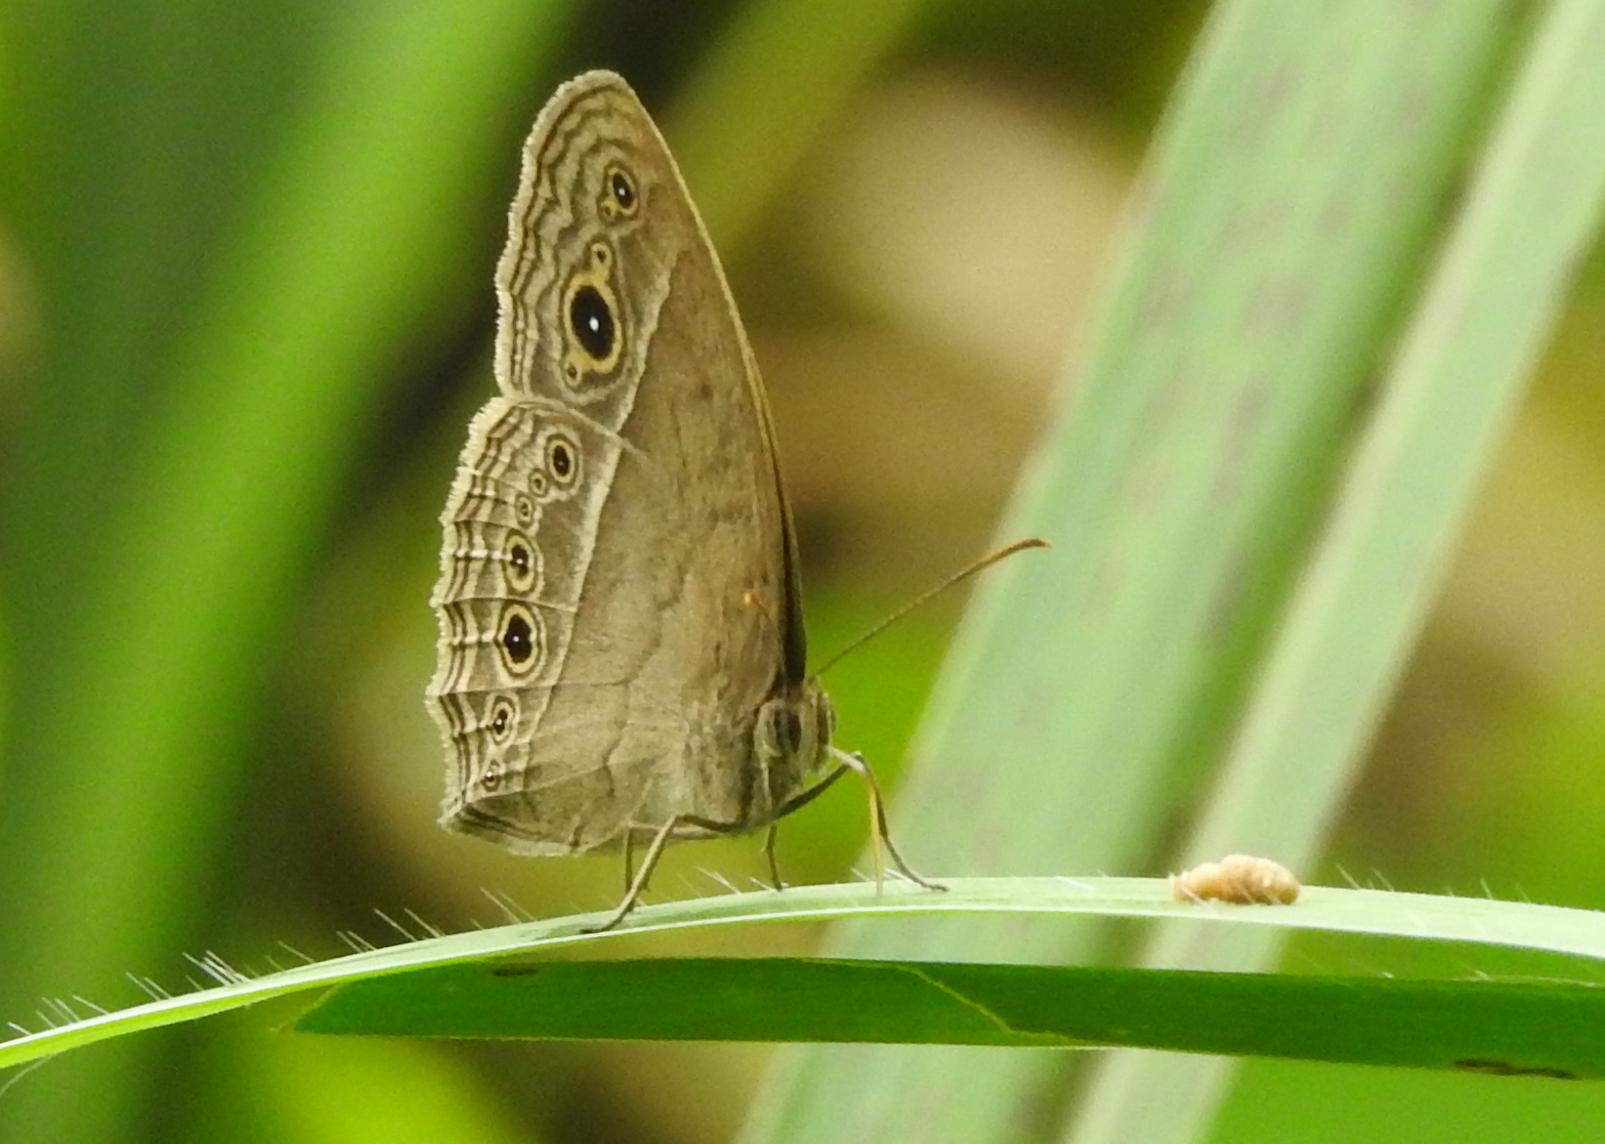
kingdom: Animalia
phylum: Arthropoda
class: Insecta
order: Lepidoptera
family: Nymphalidae
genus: Mycalesis
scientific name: Mycalesis perseoides
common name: Burmese bushbrown
